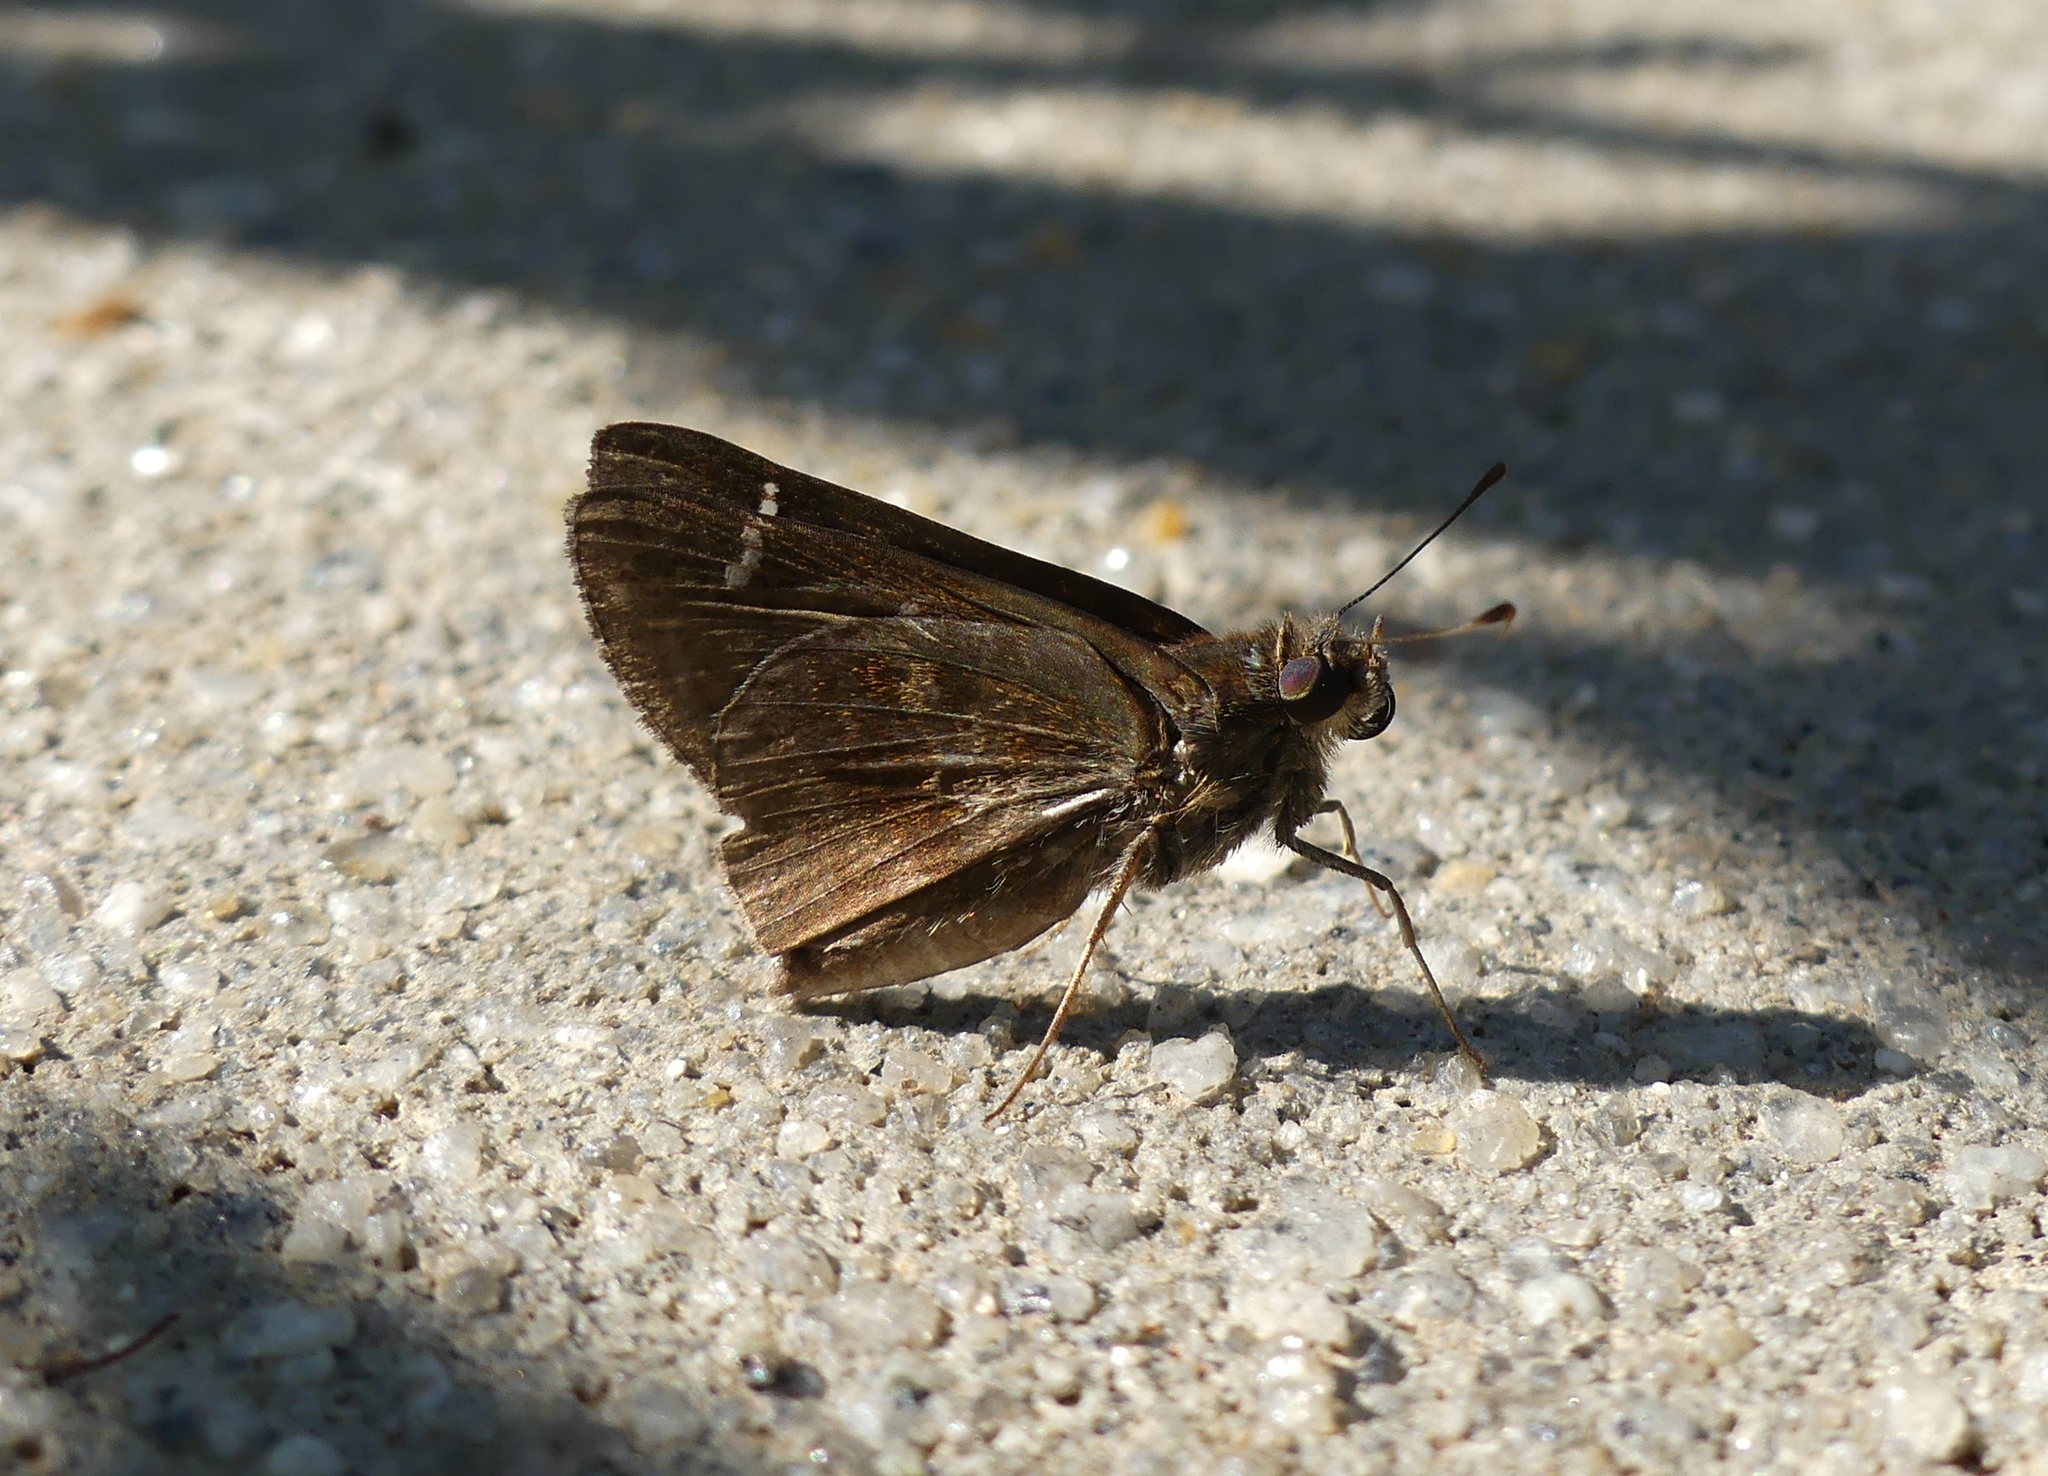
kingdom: Animalia
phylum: Arthropoda
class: Insecta
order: Lepidoptera
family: Hesperiidae
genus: Lerema
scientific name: Lerema accius
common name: Clouded skipper
